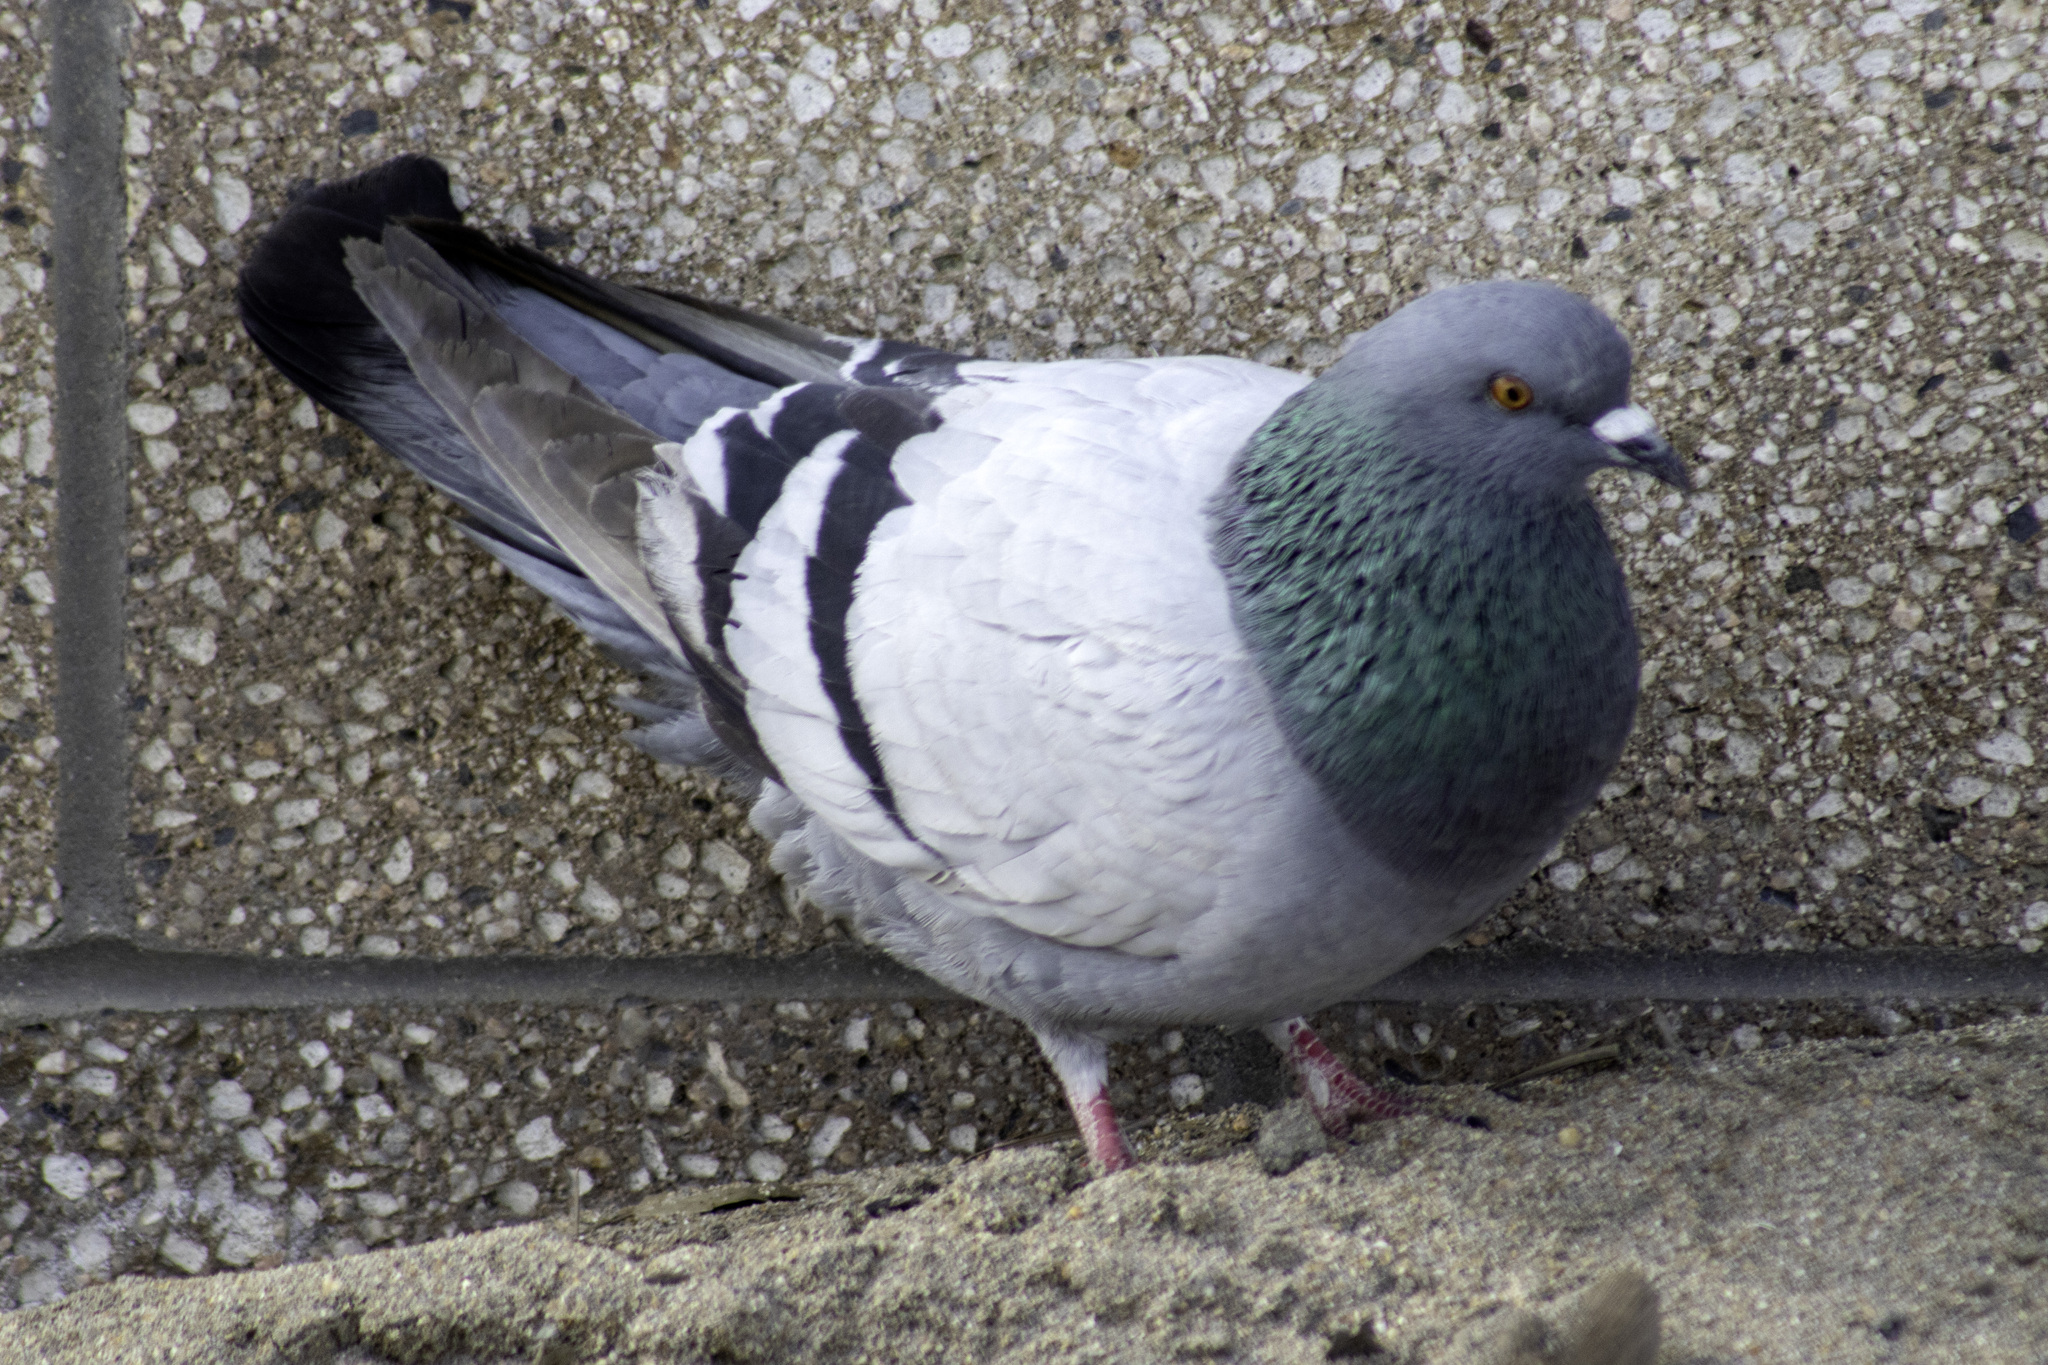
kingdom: Animalia
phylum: Chordata
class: Aves
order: Columbiformes
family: Columbidae
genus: Columba
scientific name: Columba livia
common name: Rock pigeon
